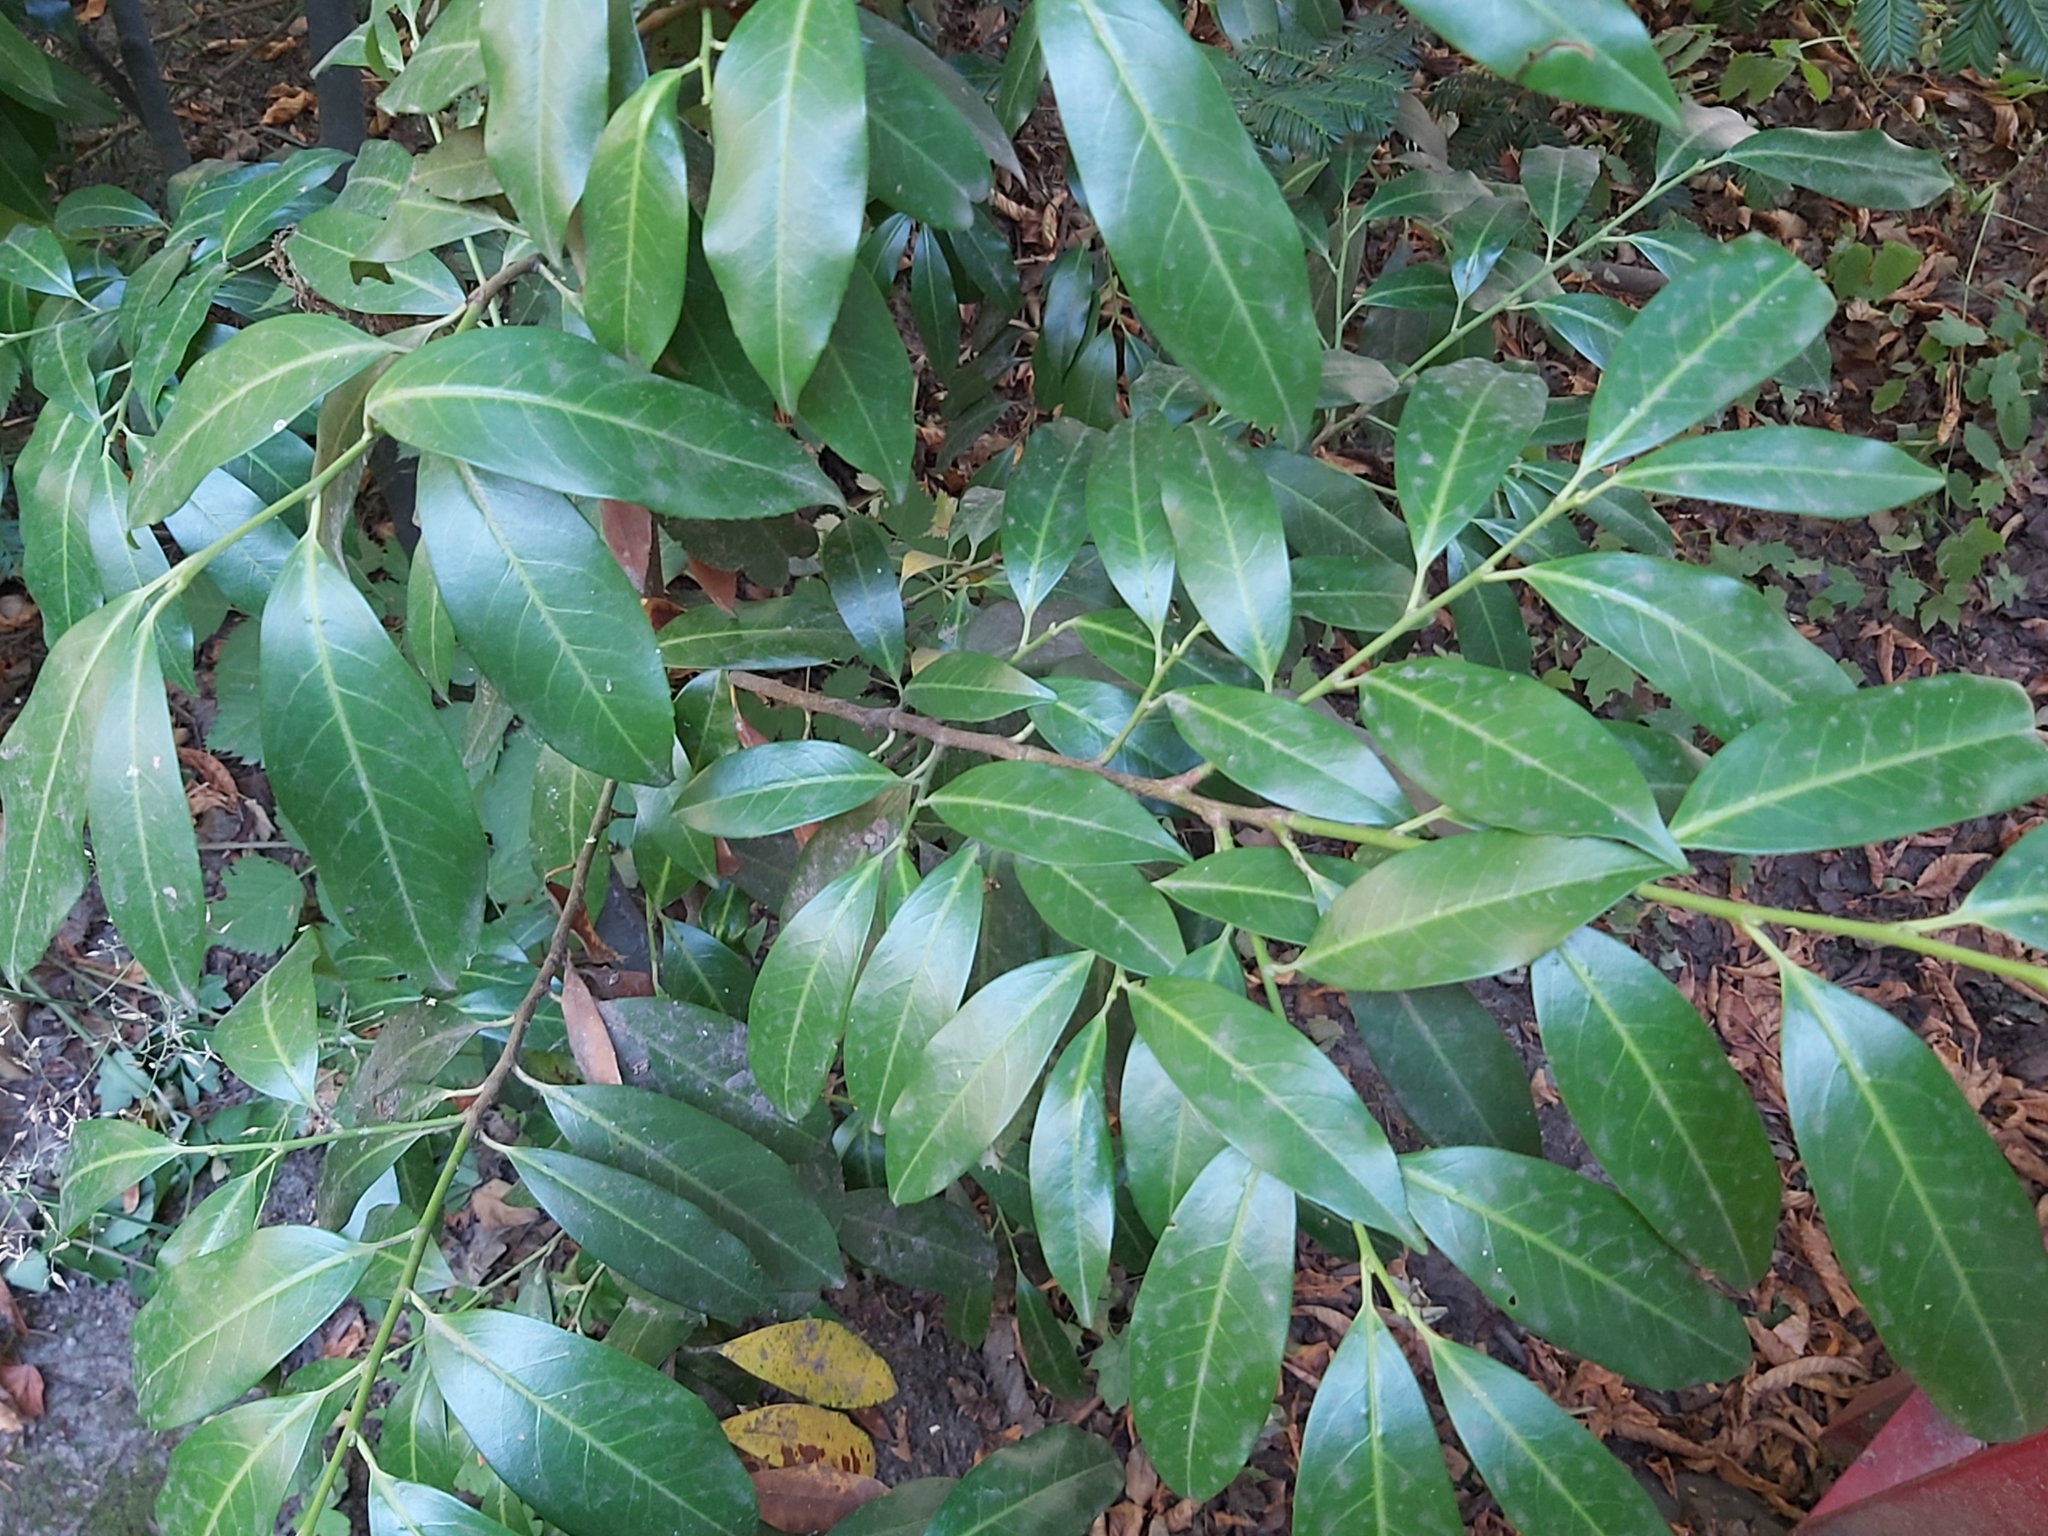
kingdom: Plantae
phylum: Tracheophyta
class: Magnoliopsida
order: Rosales
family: Rosaceae
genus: Prunus
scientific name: Prunus laurocerasus
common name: Cherry laurel
